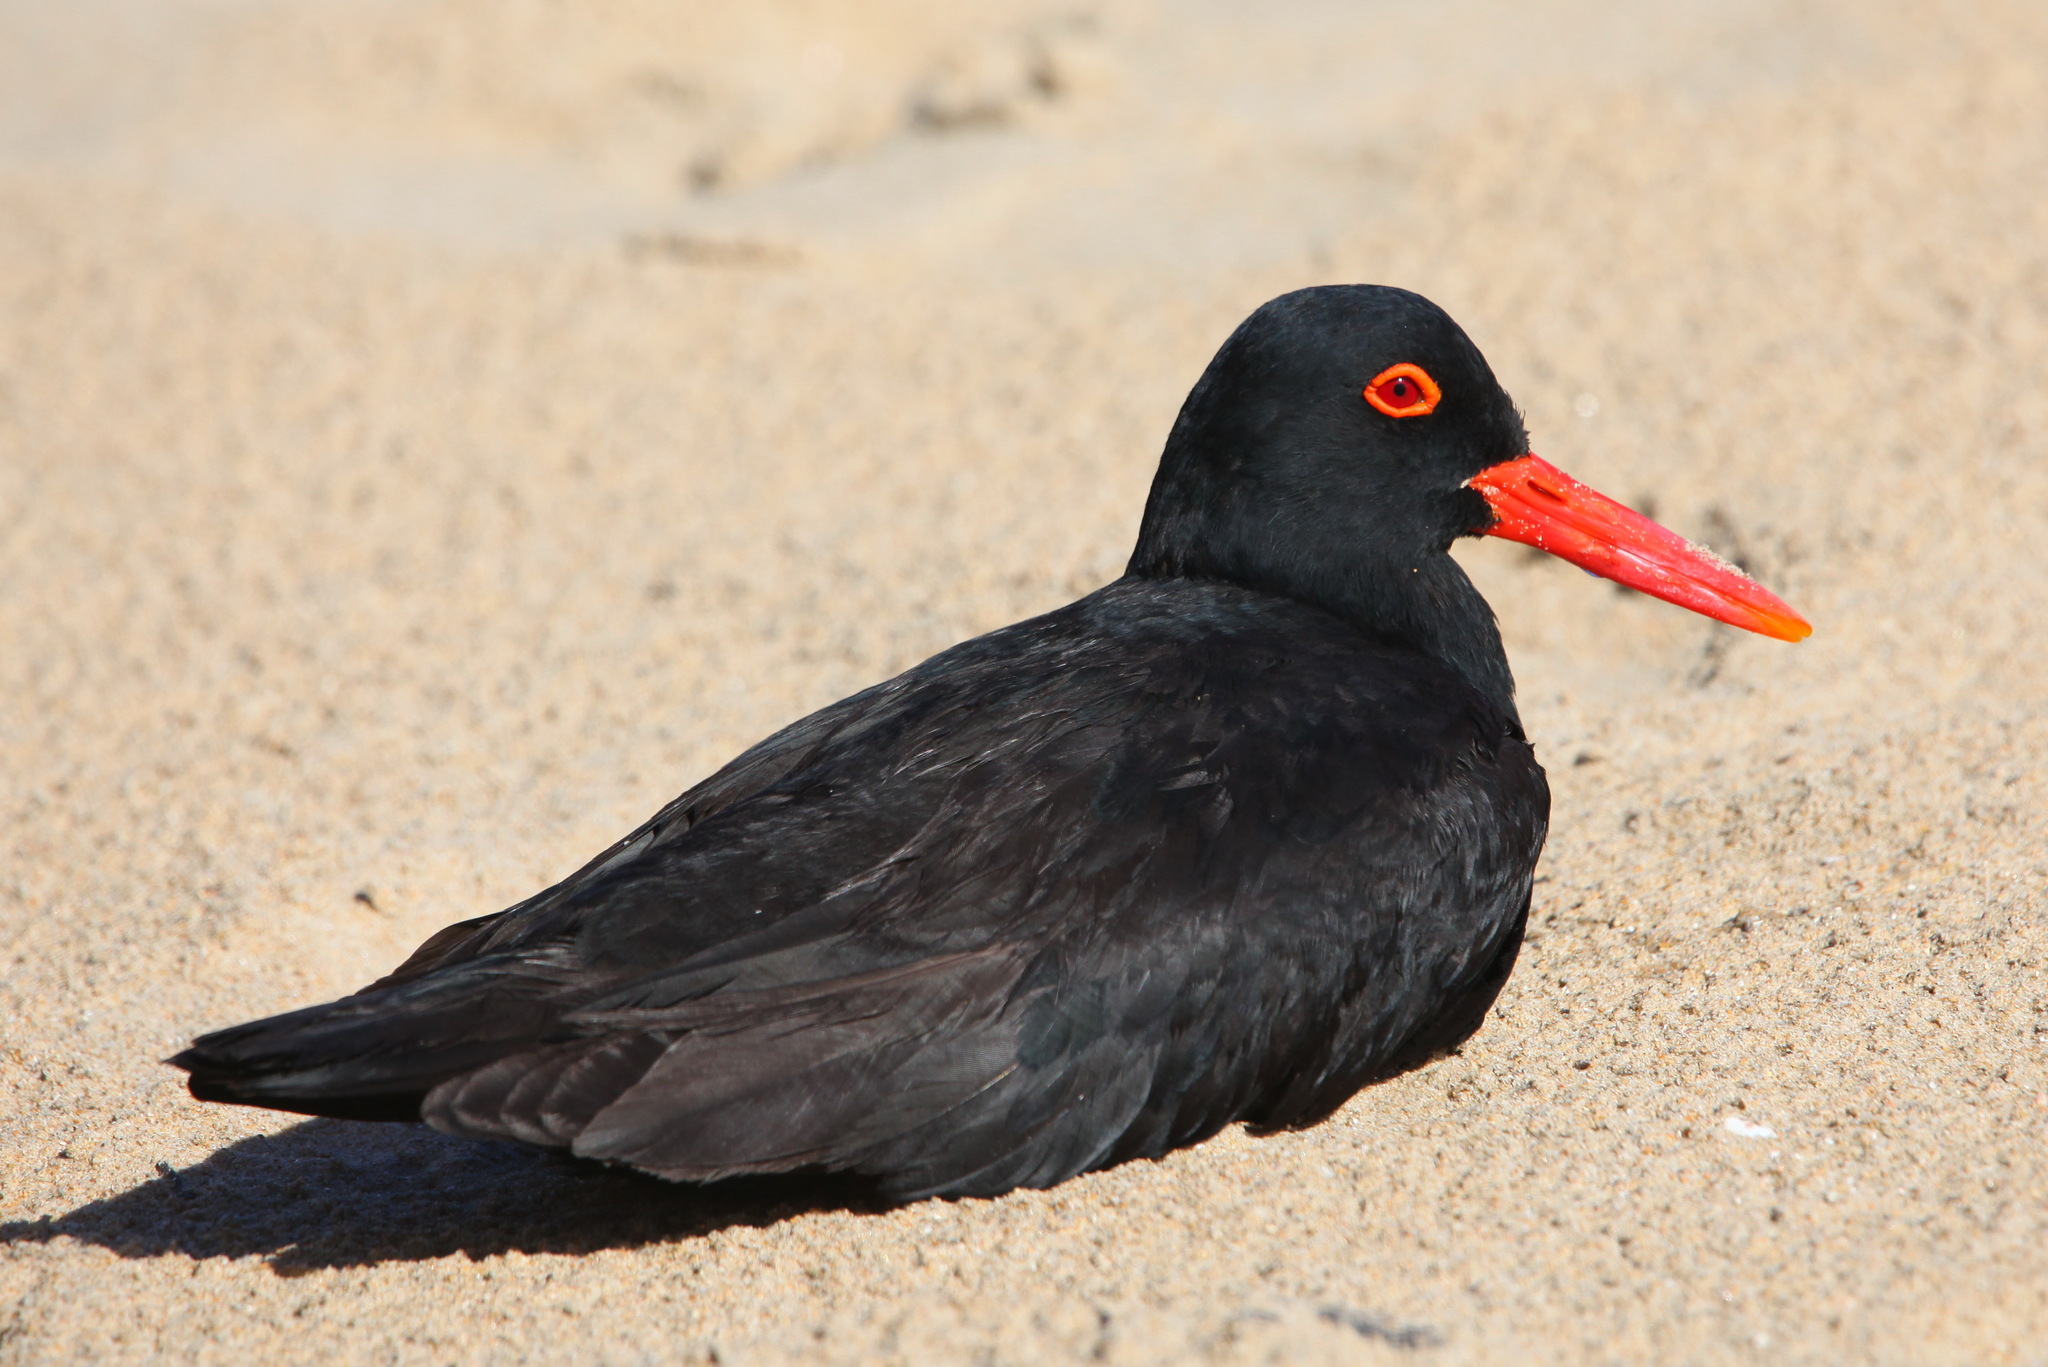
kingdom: Animalia
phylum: Chordata
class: Aves
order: Charadriiformes
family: Haematopodidae
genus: Haematopus
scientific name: Haematopus moquini
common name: African oystercatcher
